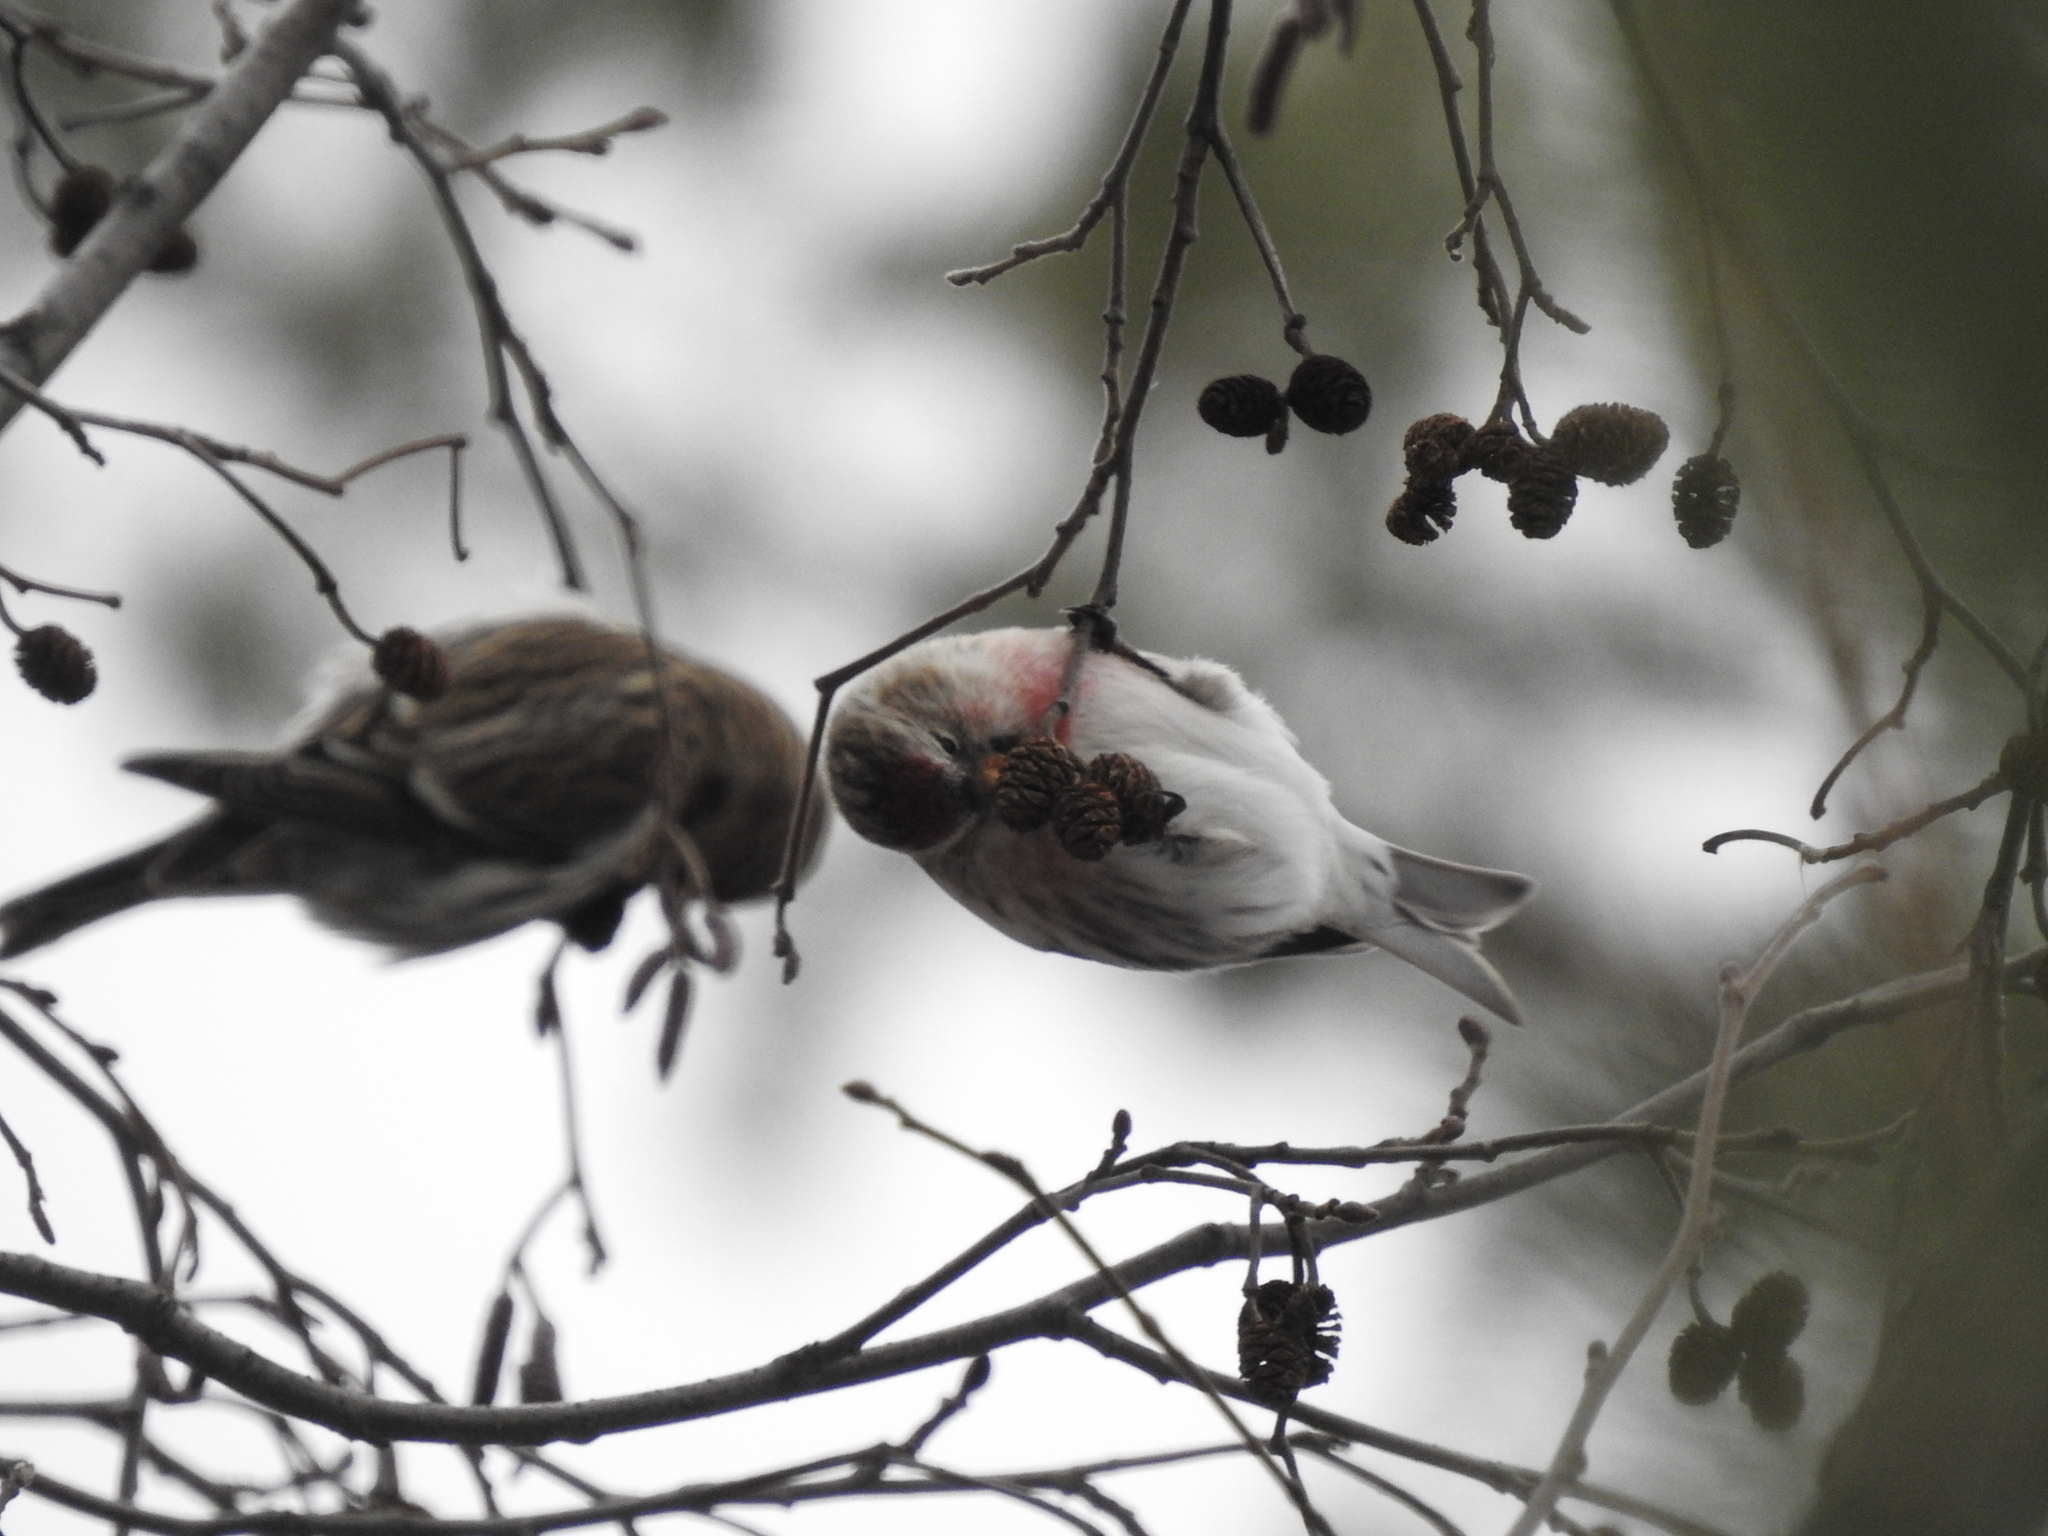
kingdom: Animalia
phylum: Chordata
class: Aves
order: Passeriformes
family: Fringillidae
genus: Acanthis
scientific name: Acanthis flammea
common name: Common redpoll
